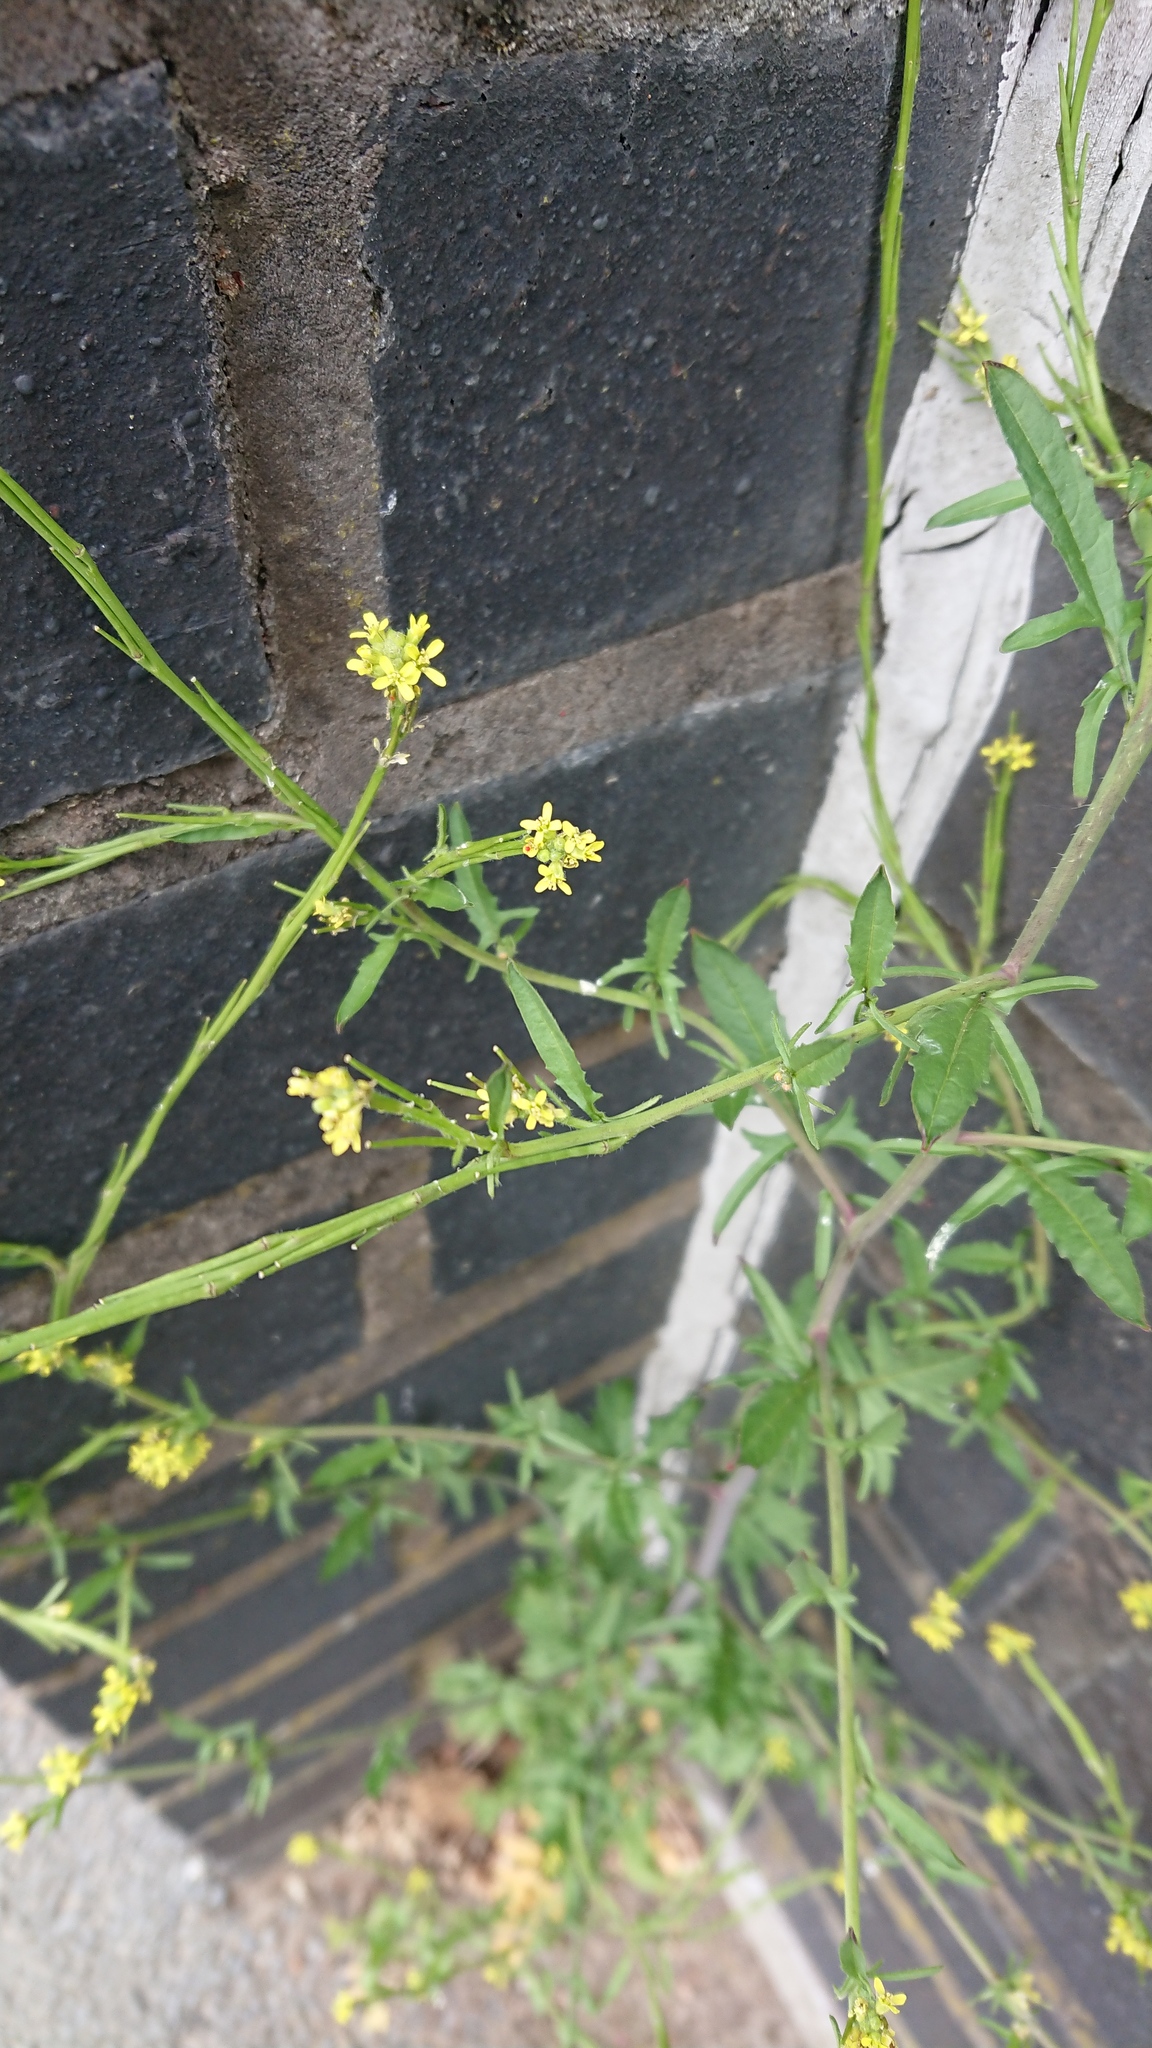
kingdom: Plantae
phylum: Tracheophyta
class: Magnoliopsida
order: Brassicales
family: Brassicaceae
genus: Sisymbrium
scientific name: Sisymbrium officinale
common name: Hedge mustard
